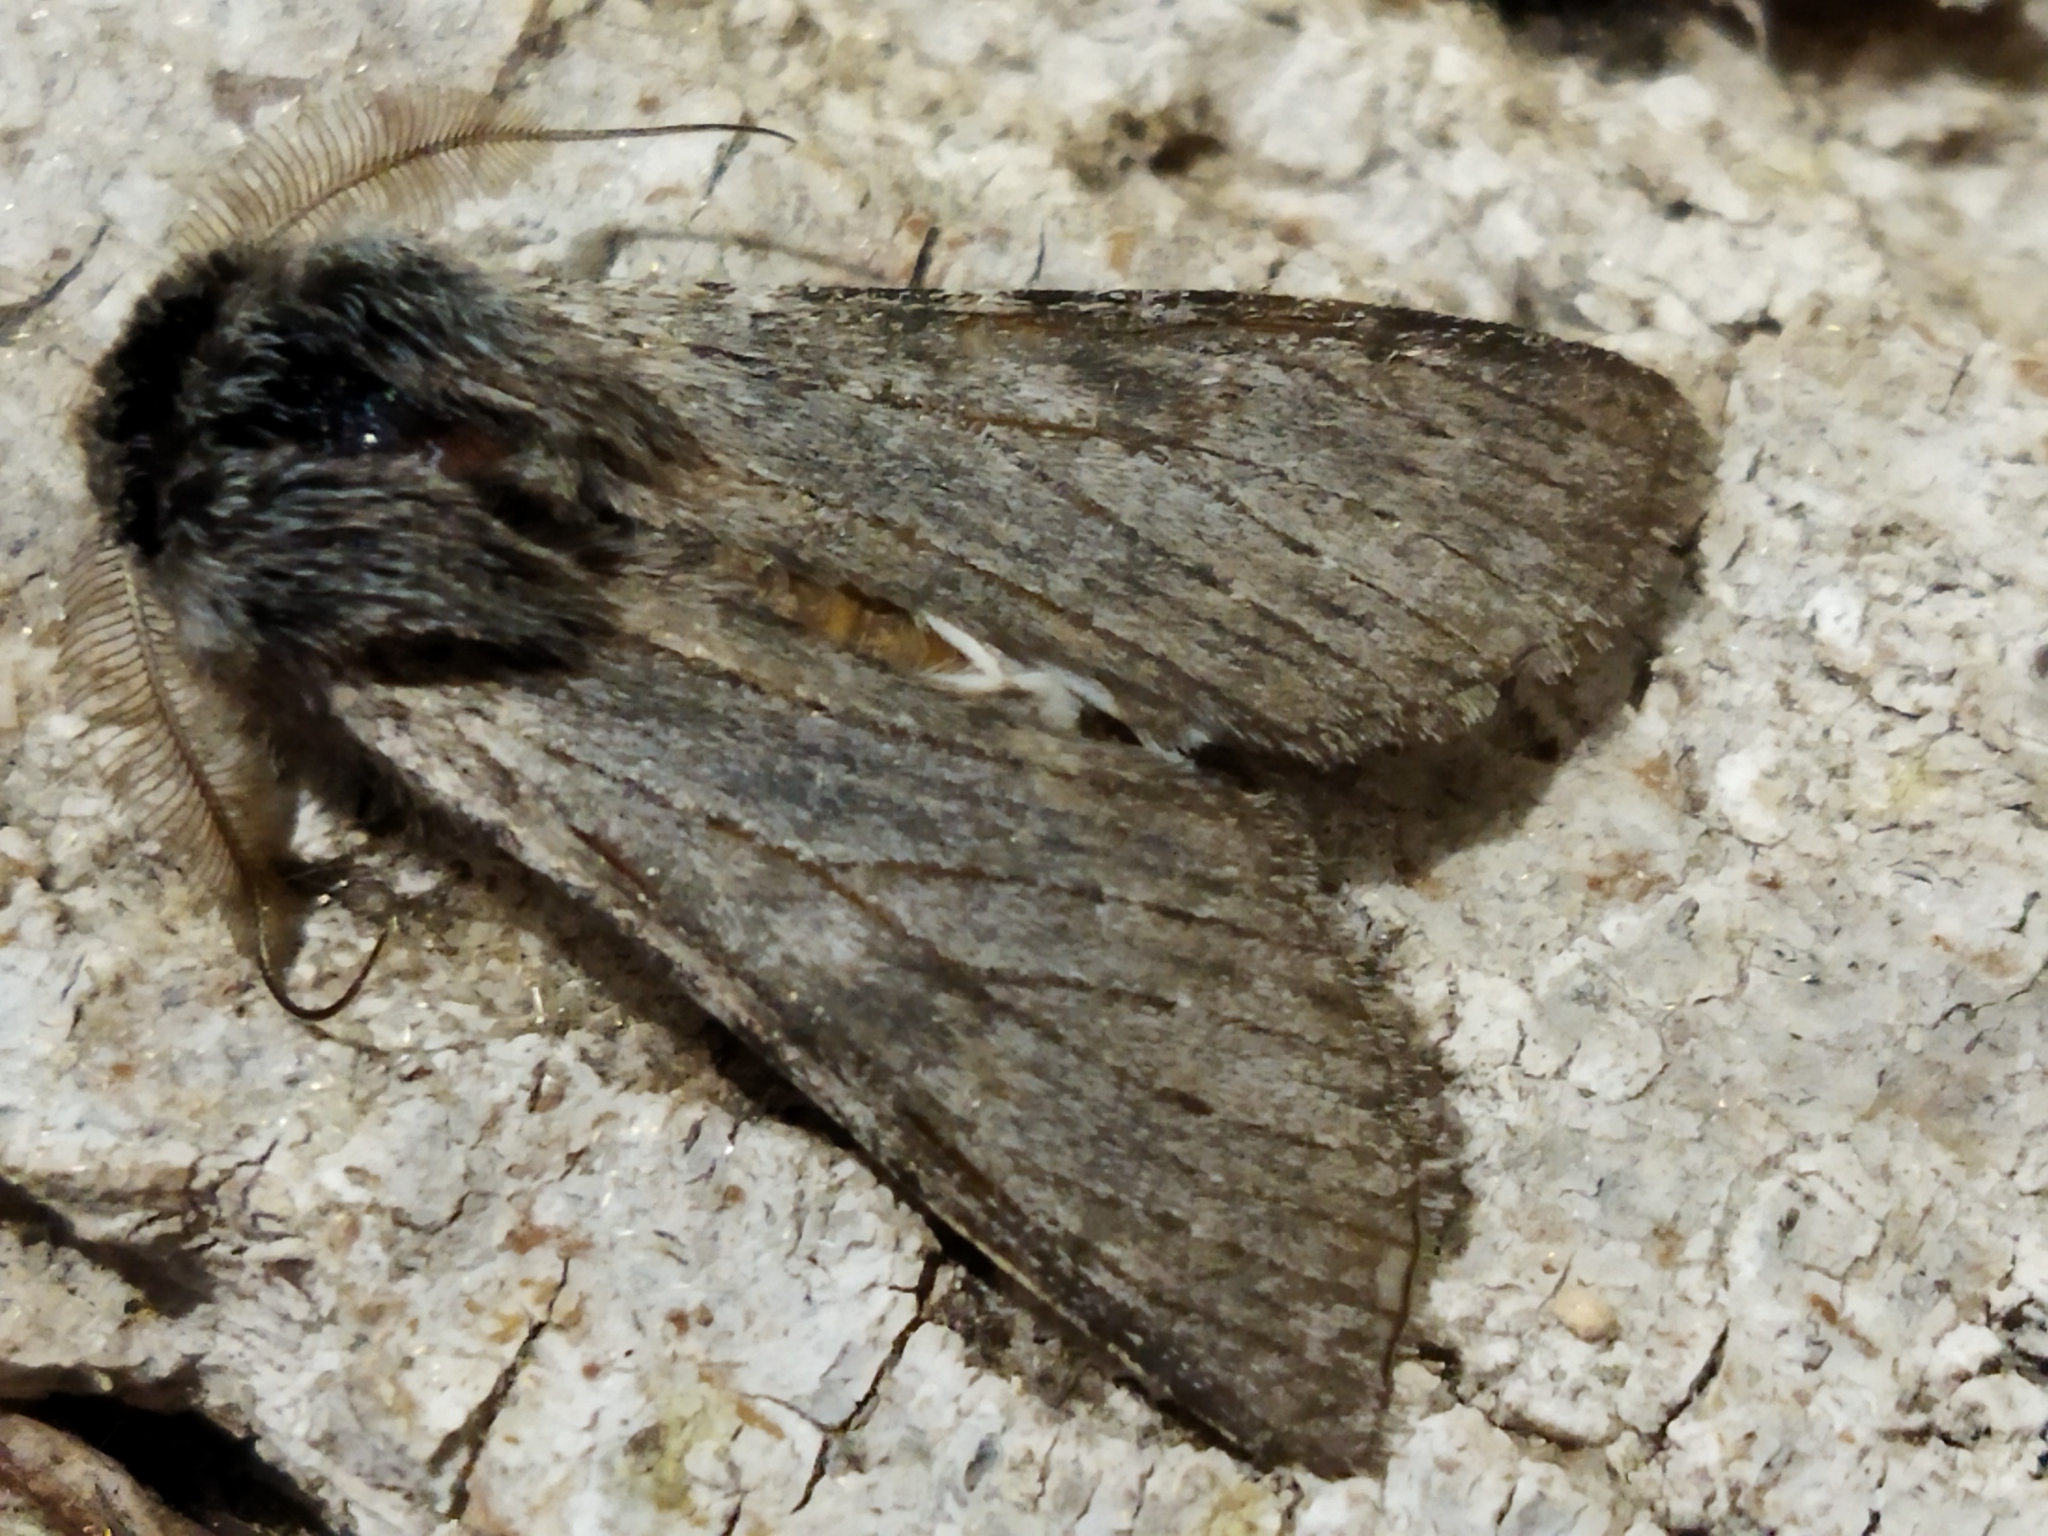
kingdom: Animalia
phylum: Arthropoda
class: Insecta
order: Lepidoptera
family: Notodontidae
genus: Dicranura
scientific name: Dicranura ulmi
